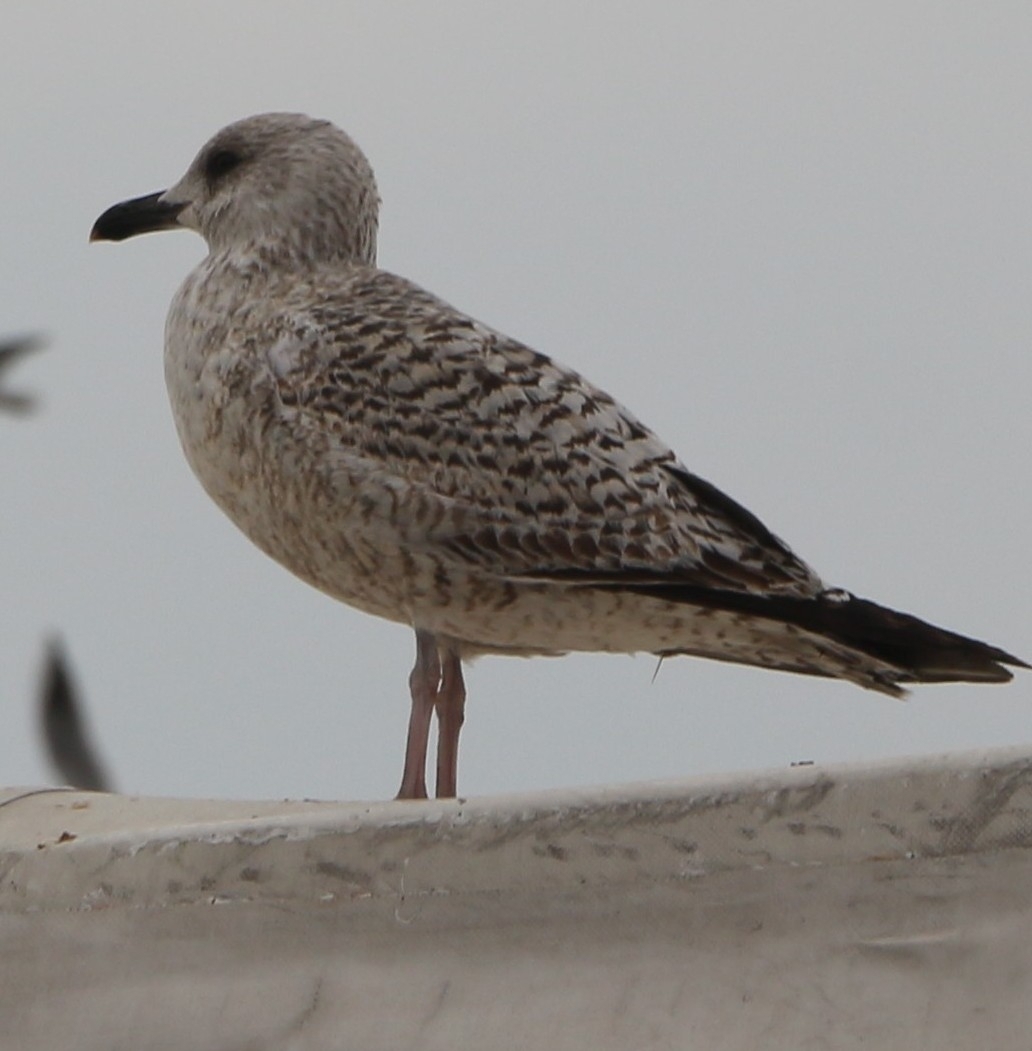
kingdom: Animalia
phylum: Chordata
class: Aves
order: Charadriiformes
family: Laridae
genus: Larus
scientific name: Larus michahellis
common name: Yellow-legged gull
